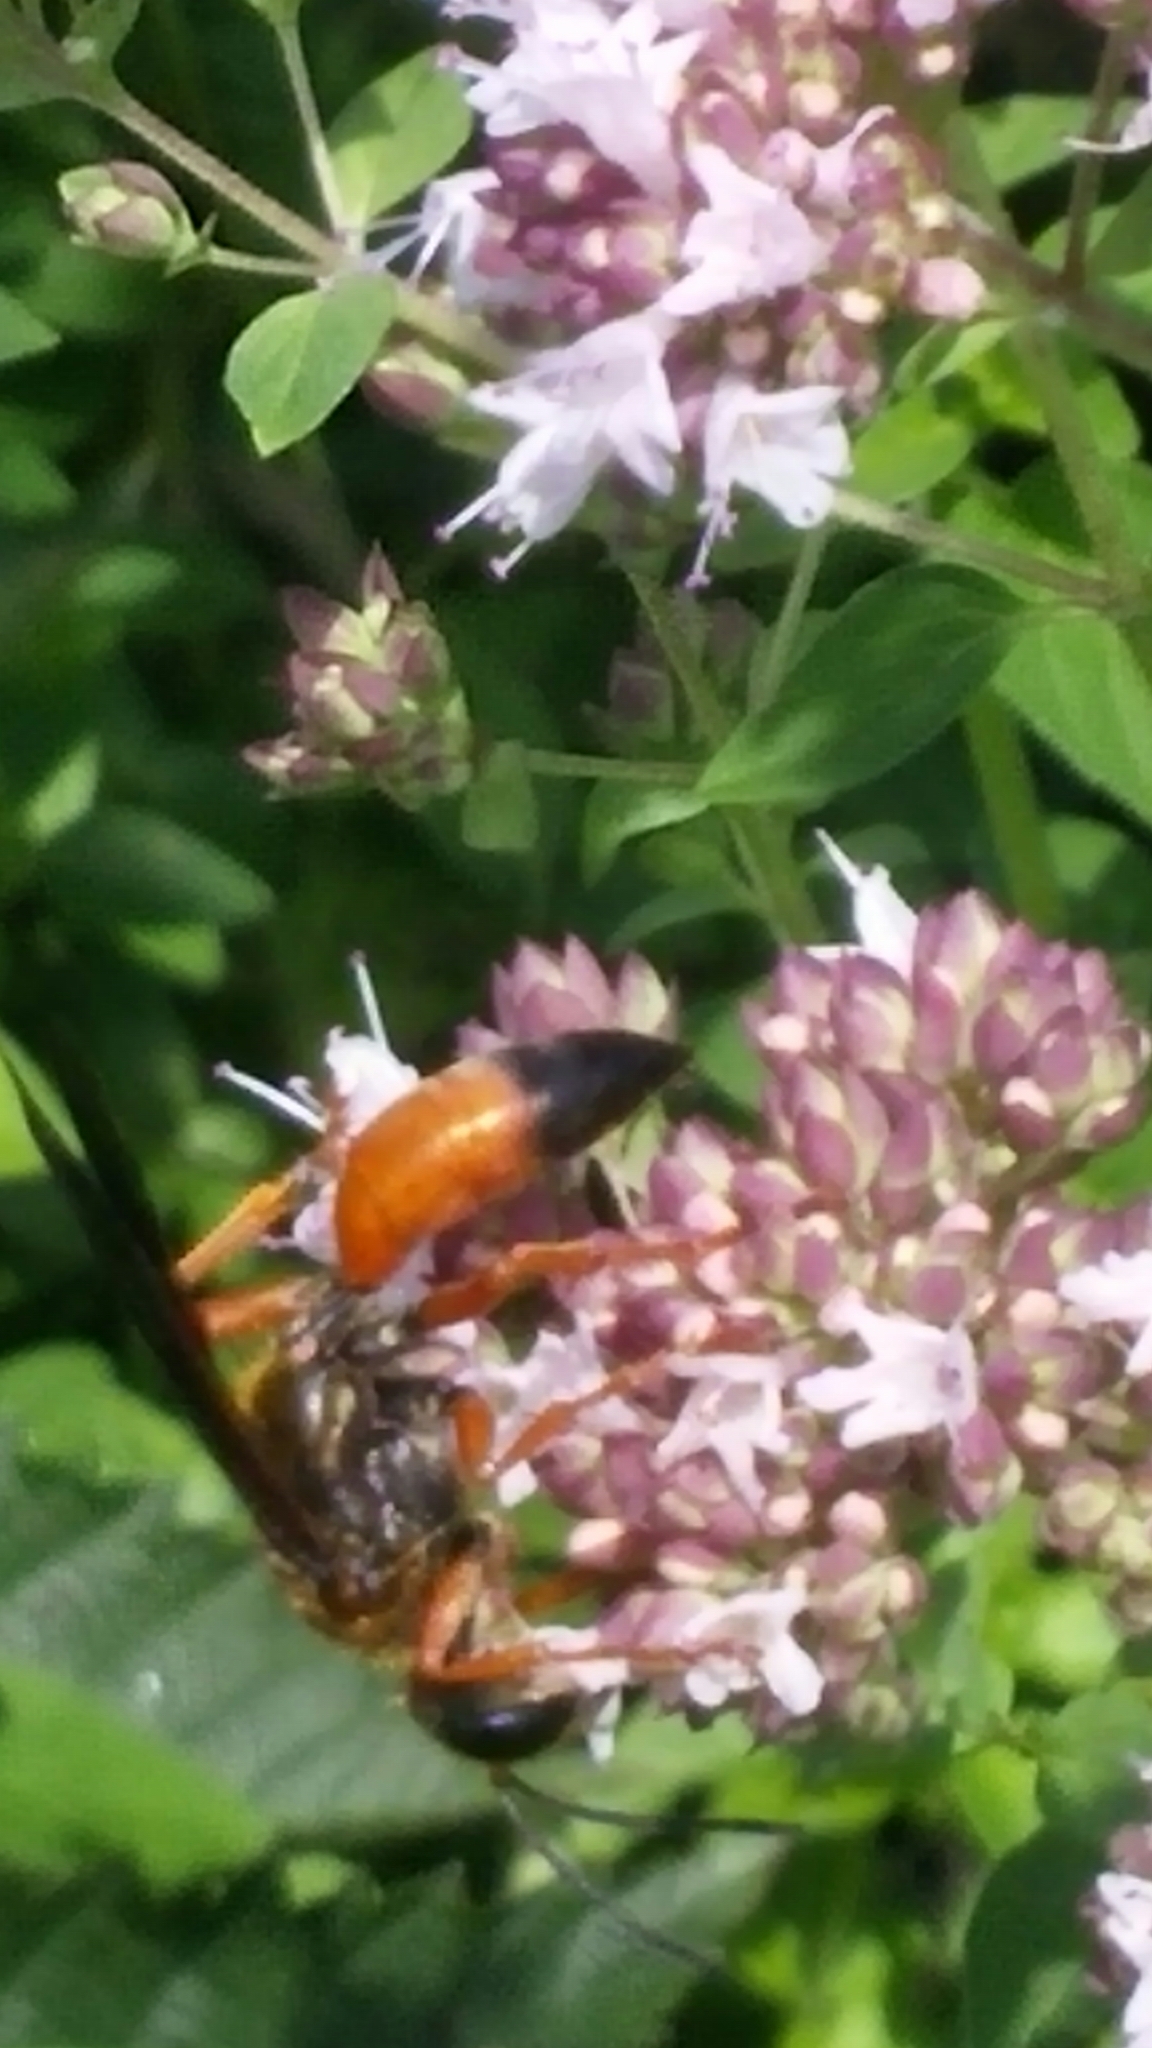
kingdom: Animalia
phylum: Arthropoda
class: Insecta
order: Hymenoptera
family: Sphecidae
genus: Sphex
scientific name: Sphex ichneumoneus
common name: Great golden digger wasp
